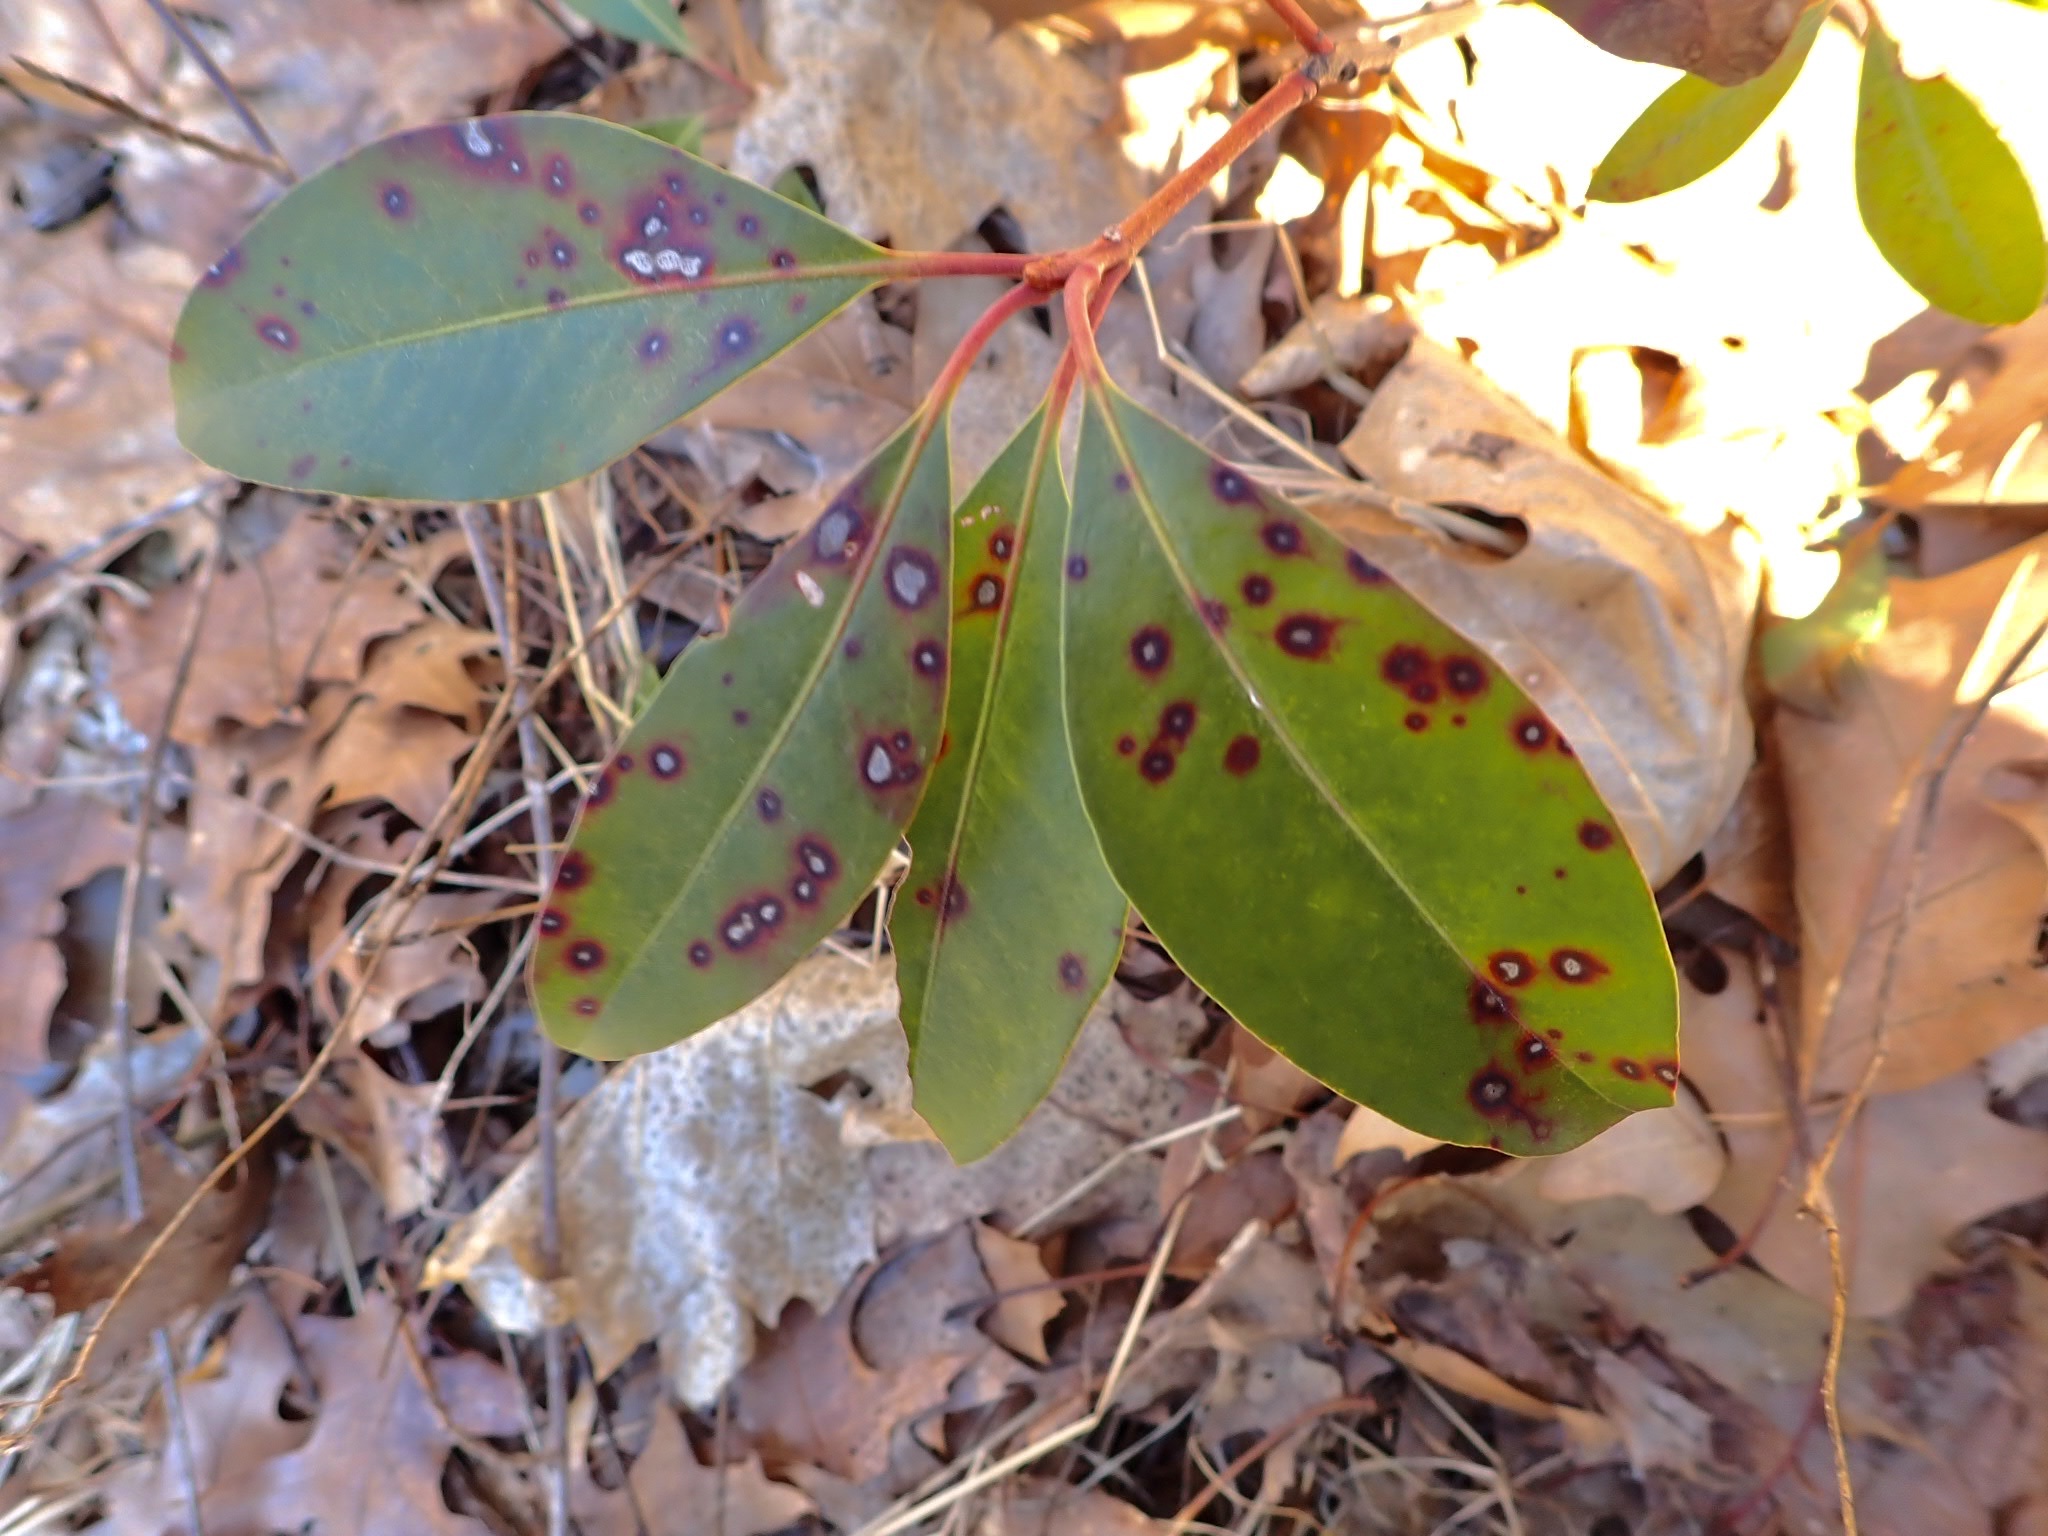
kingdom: Plantae
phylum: Tracheophyta
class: Magnoliopsida
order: Ericales
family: Ericaceae
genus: Kalmia
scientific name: Kalmia latifolia
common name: Mountain-laurel
